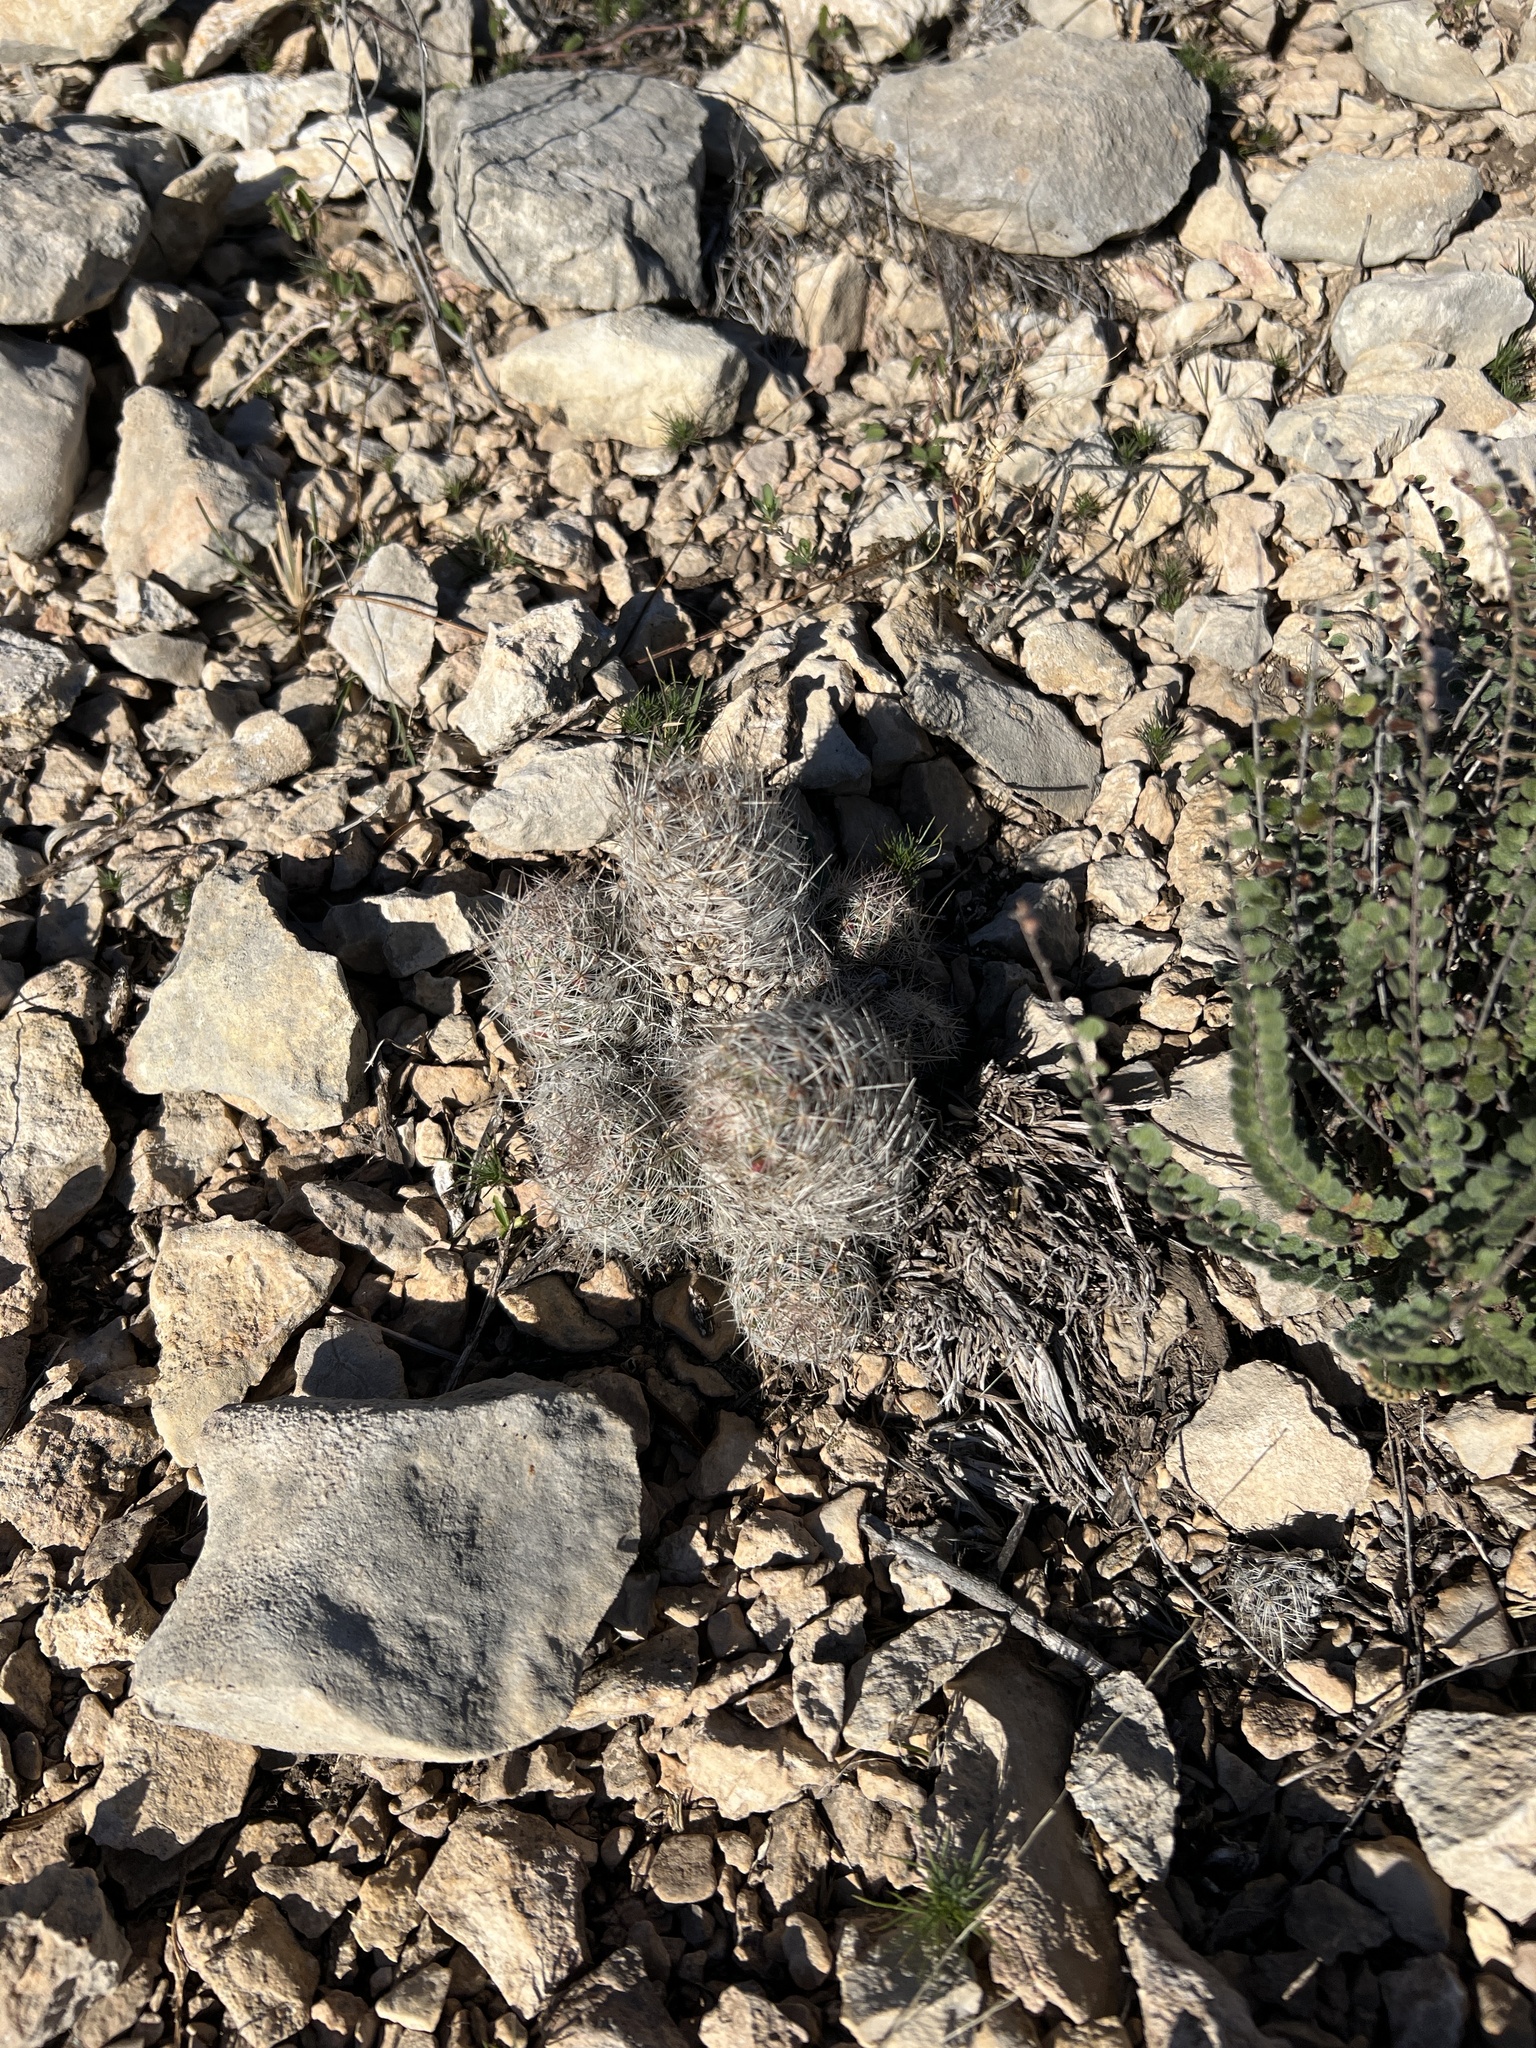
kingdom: Plantae
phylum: Tracheophyta
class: Magnoliopsida
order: Caryophyllales
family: Cactaceae
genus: Pelecyphora
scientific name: Pelecyphora tuberculosa
